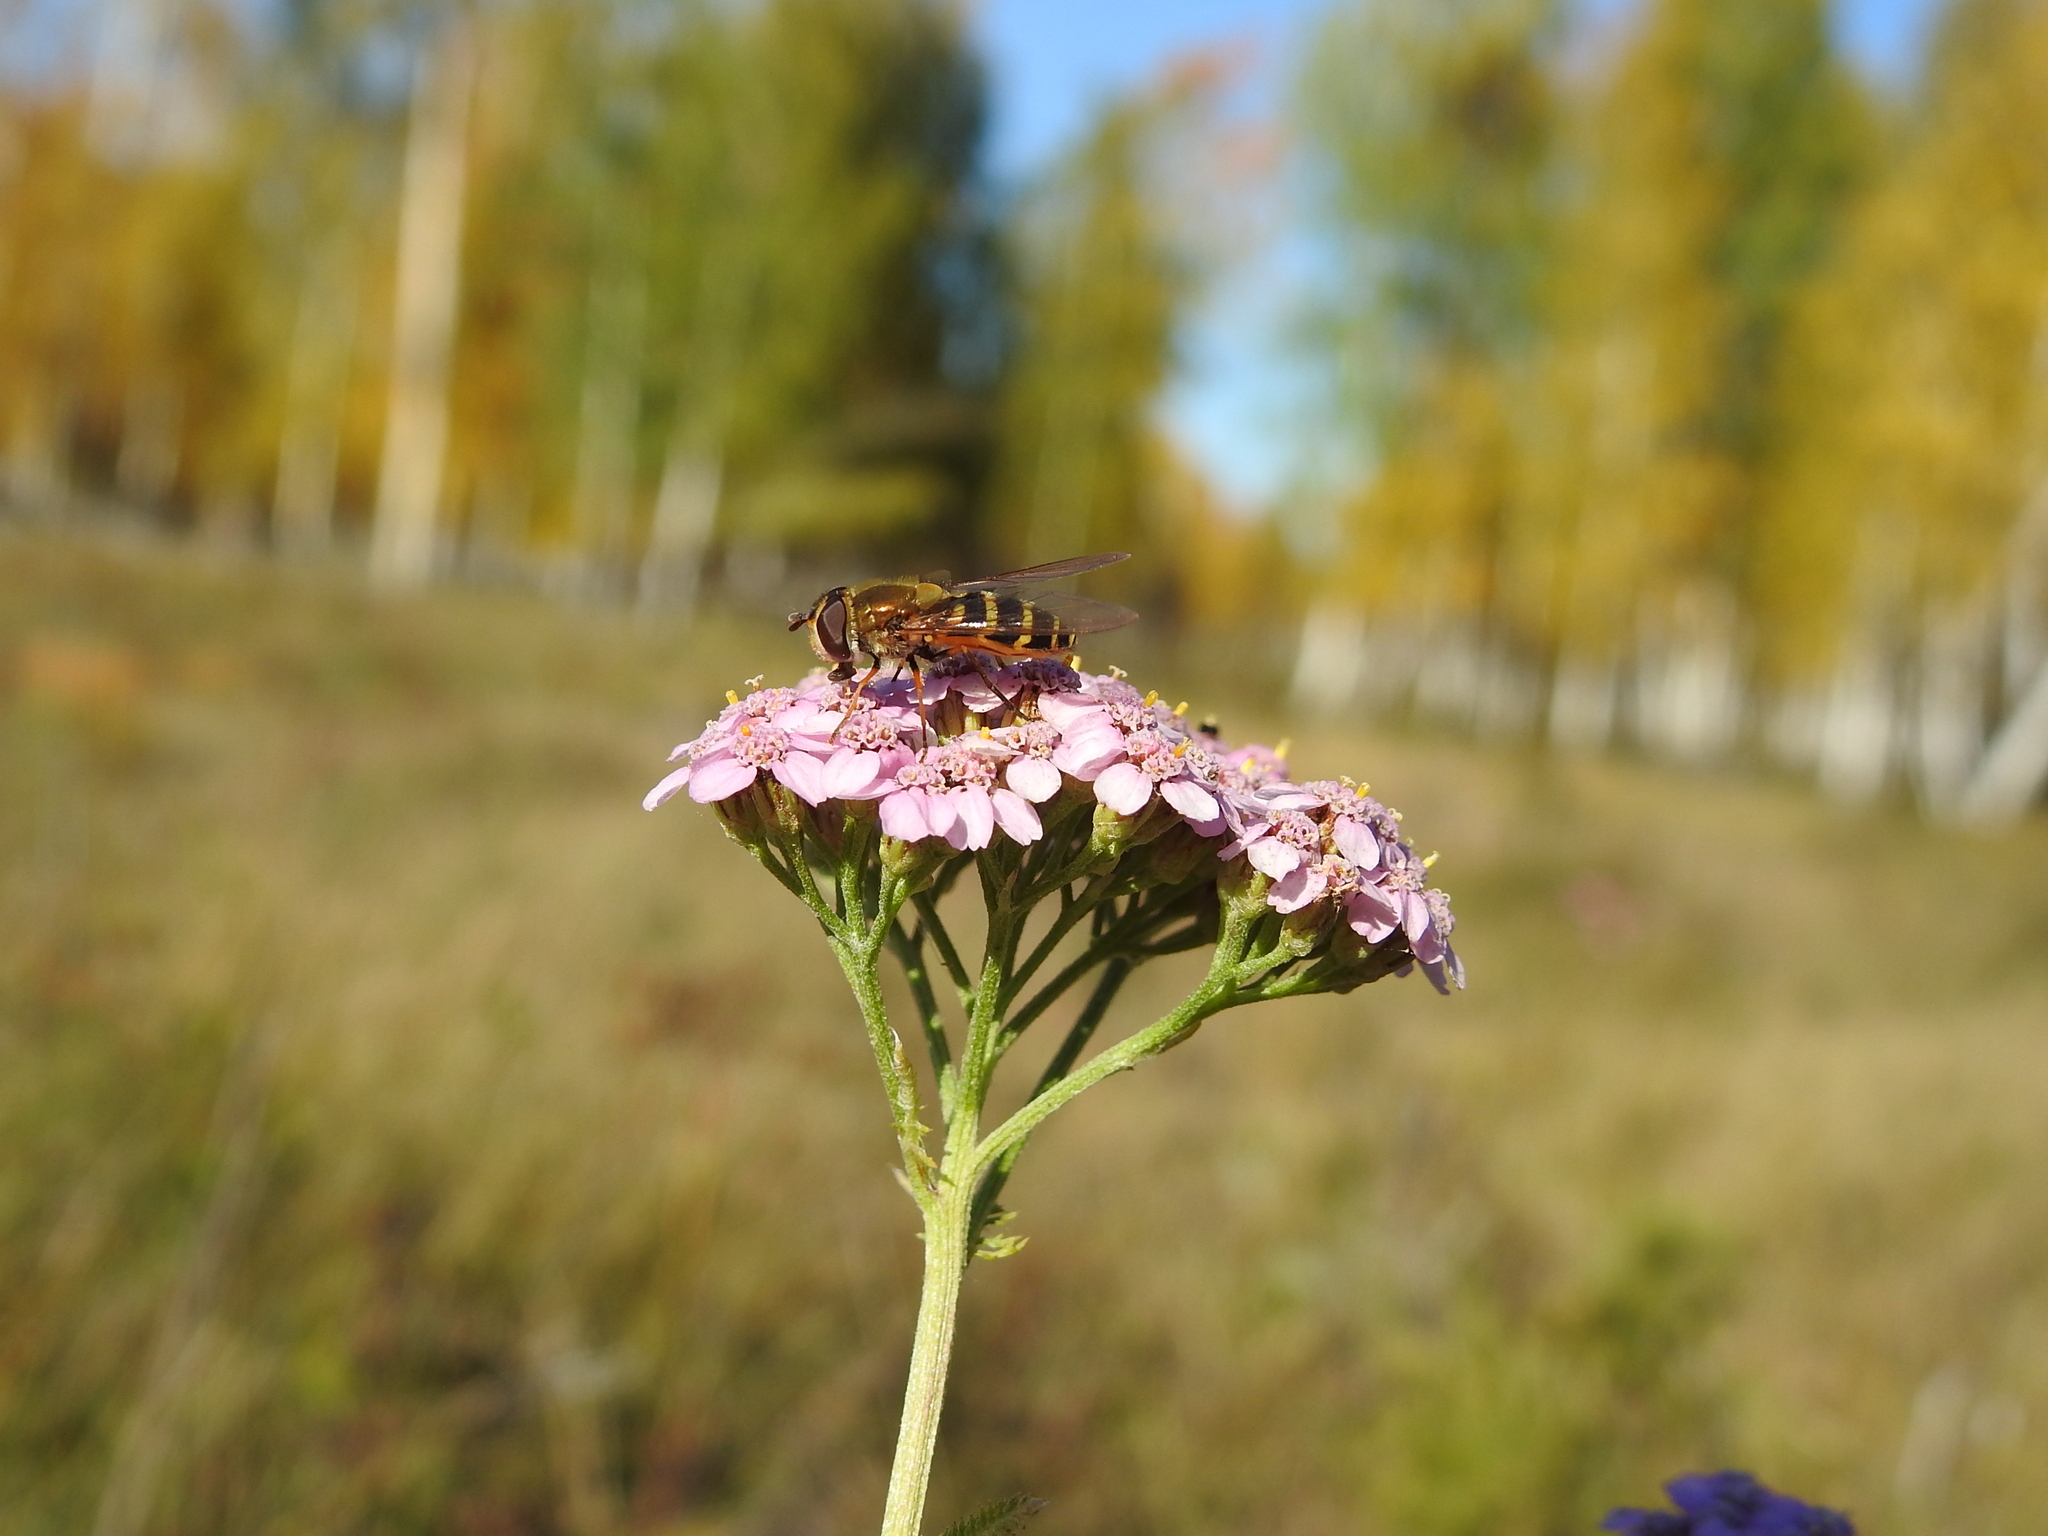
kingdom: Plantae
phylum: Tracheophyta
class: Magnoliopsida
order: Asterales
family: Asteraceae
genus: Achillea
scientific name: Achillea asiatica
